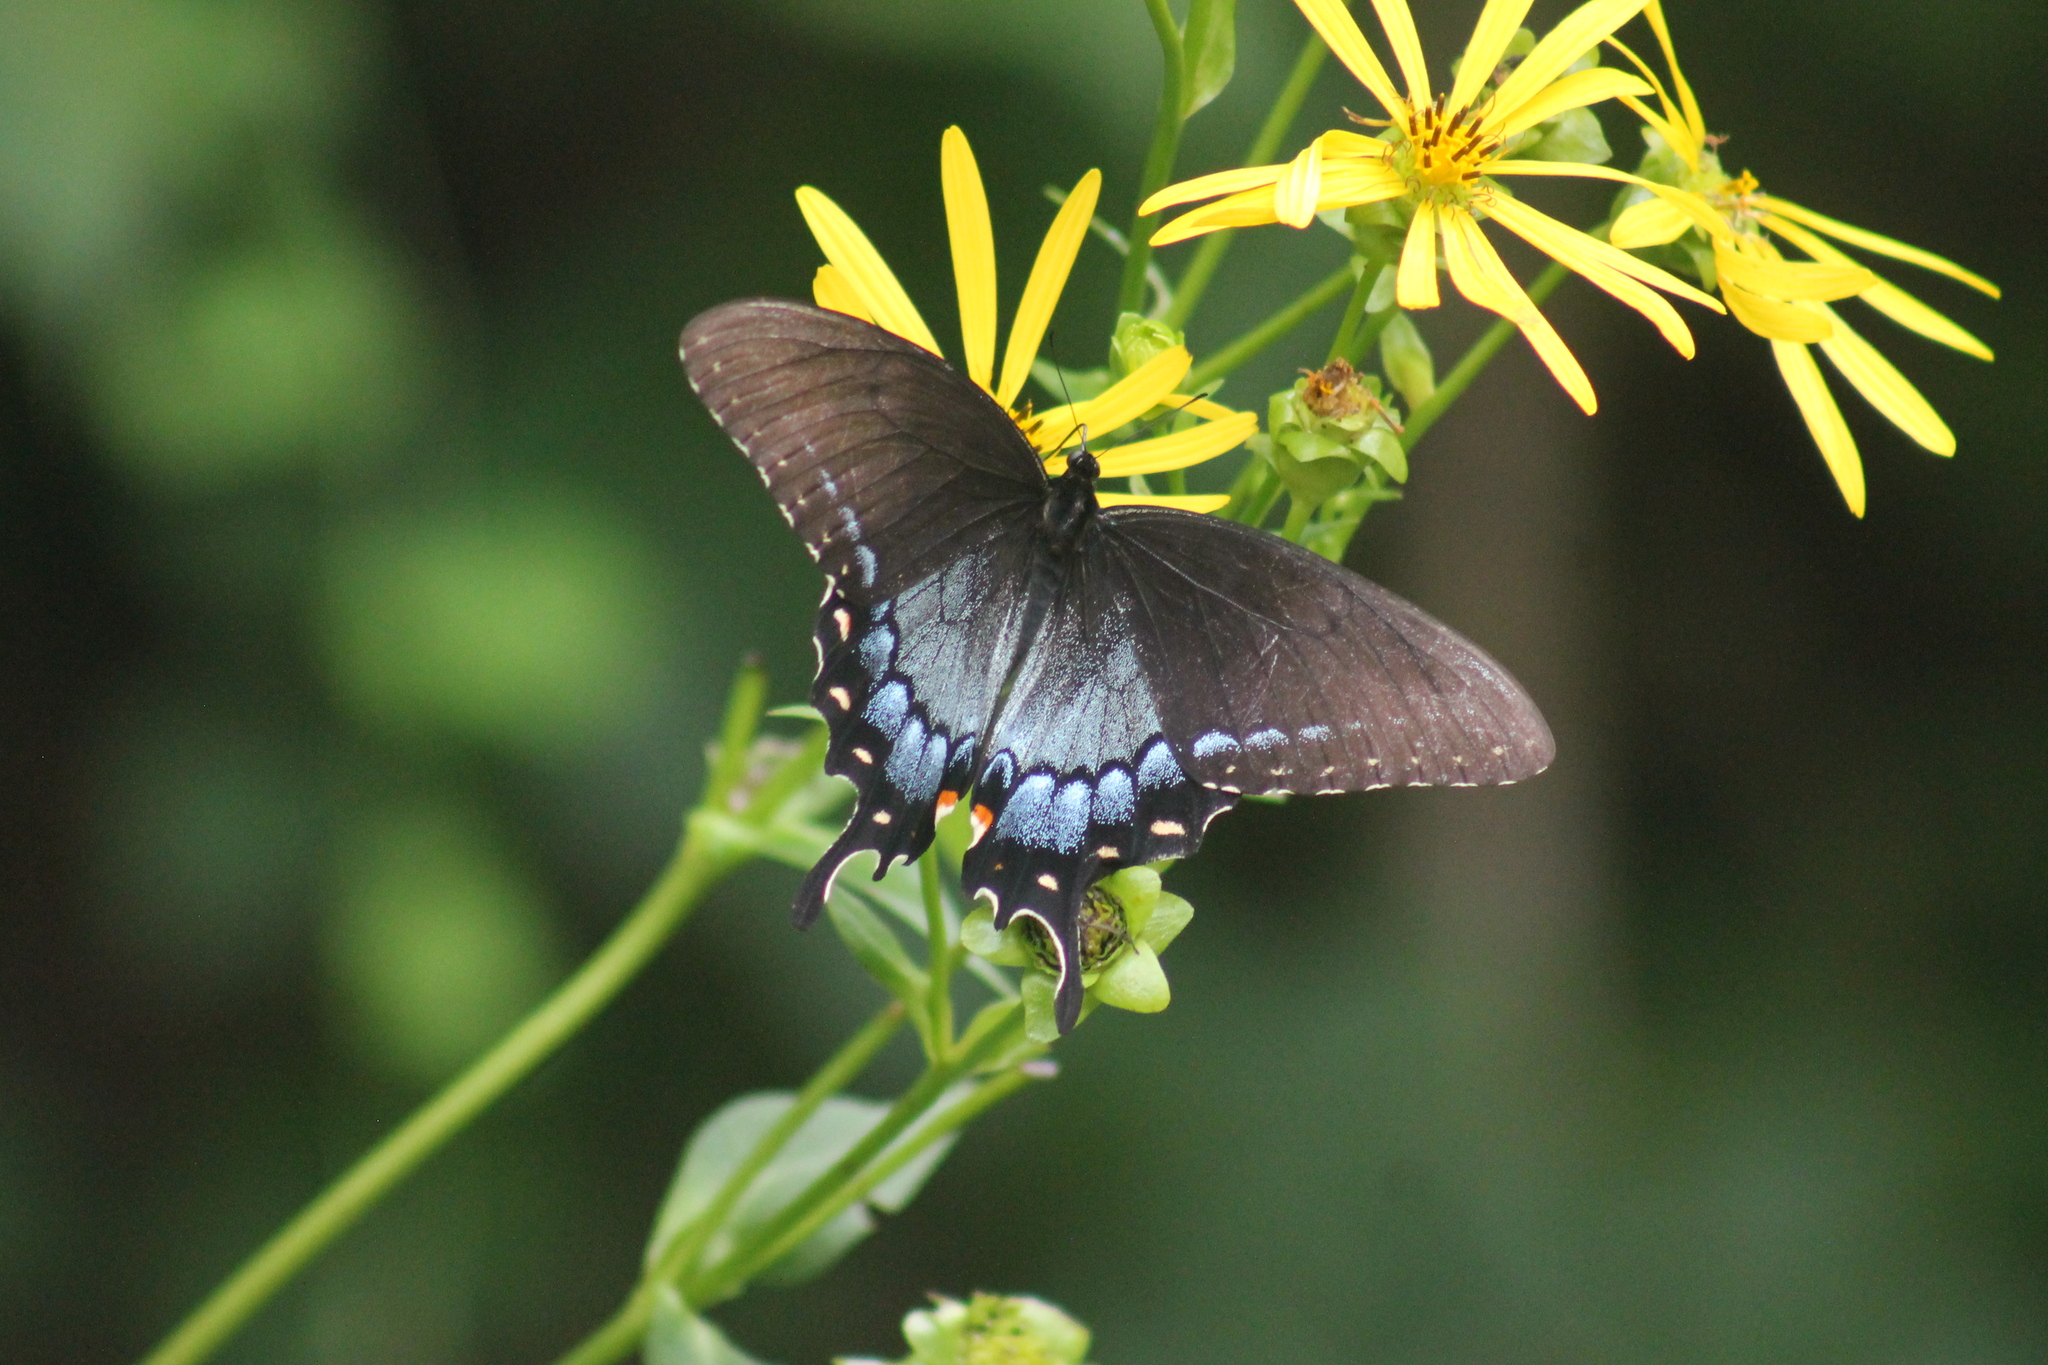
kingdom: Animalia
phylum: Arthropoda
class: Insecta
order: Lepidoptera
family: Papilionidae
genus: Papilio
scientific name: Papilio glaucus
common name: Tiger swallowtail
